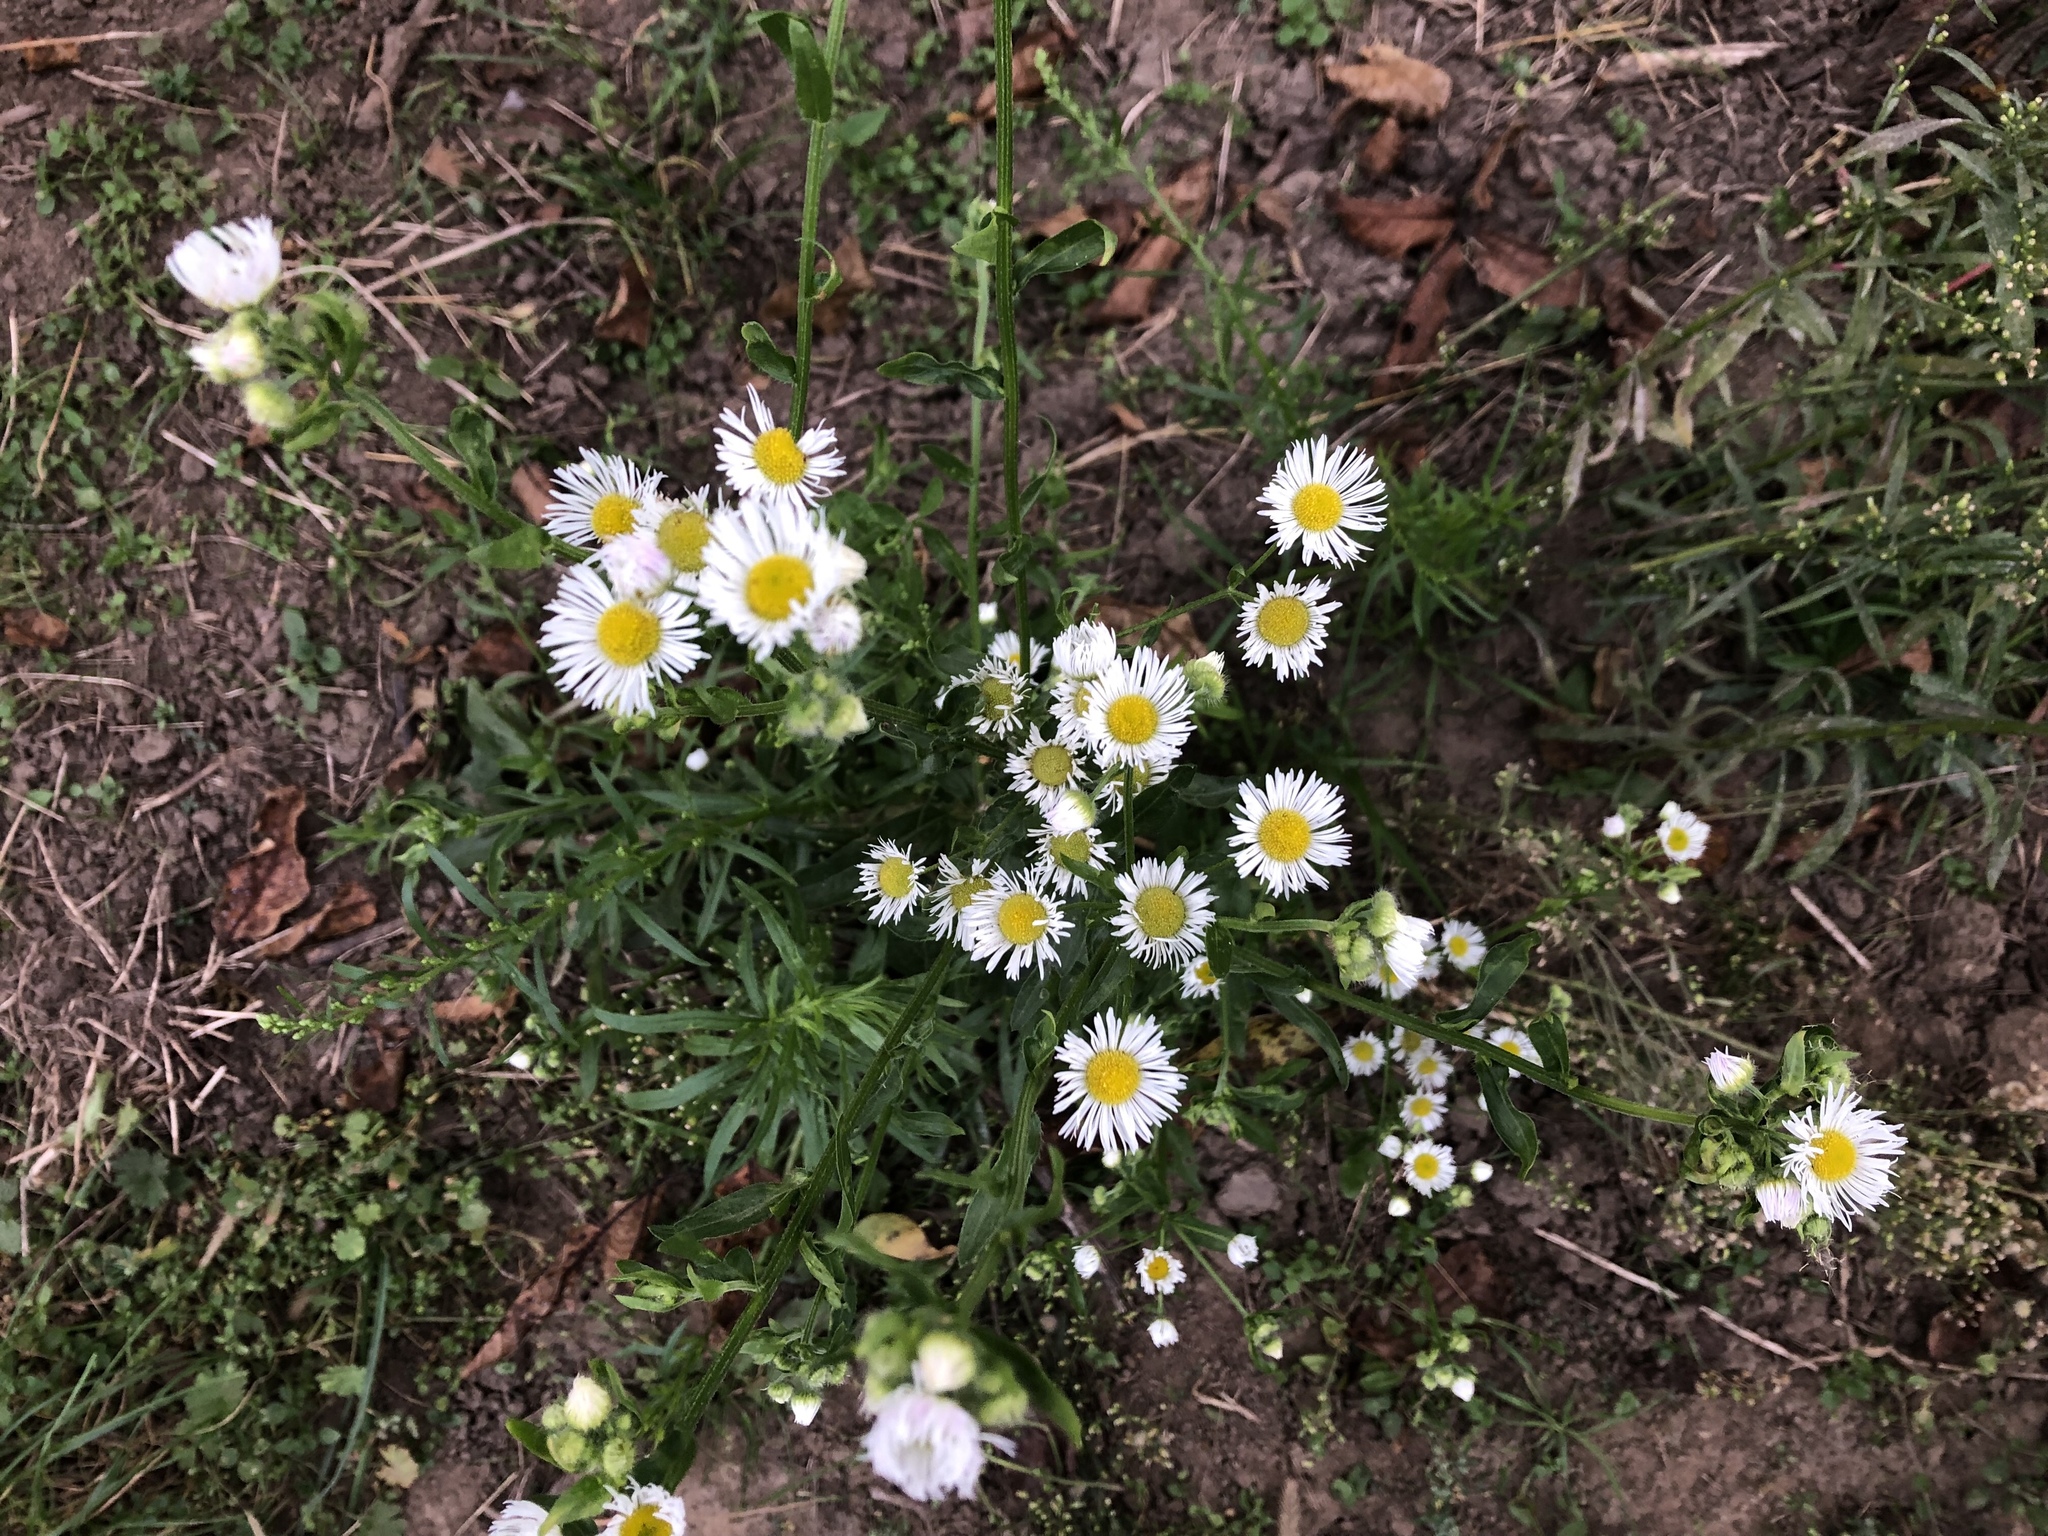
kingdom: Plantae
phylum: Tracheophyta
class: Magnoliopsida
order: Asterales
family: Asteraceae
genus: Erigeron
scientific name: Erigeron annuus
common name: Tall fleabane
